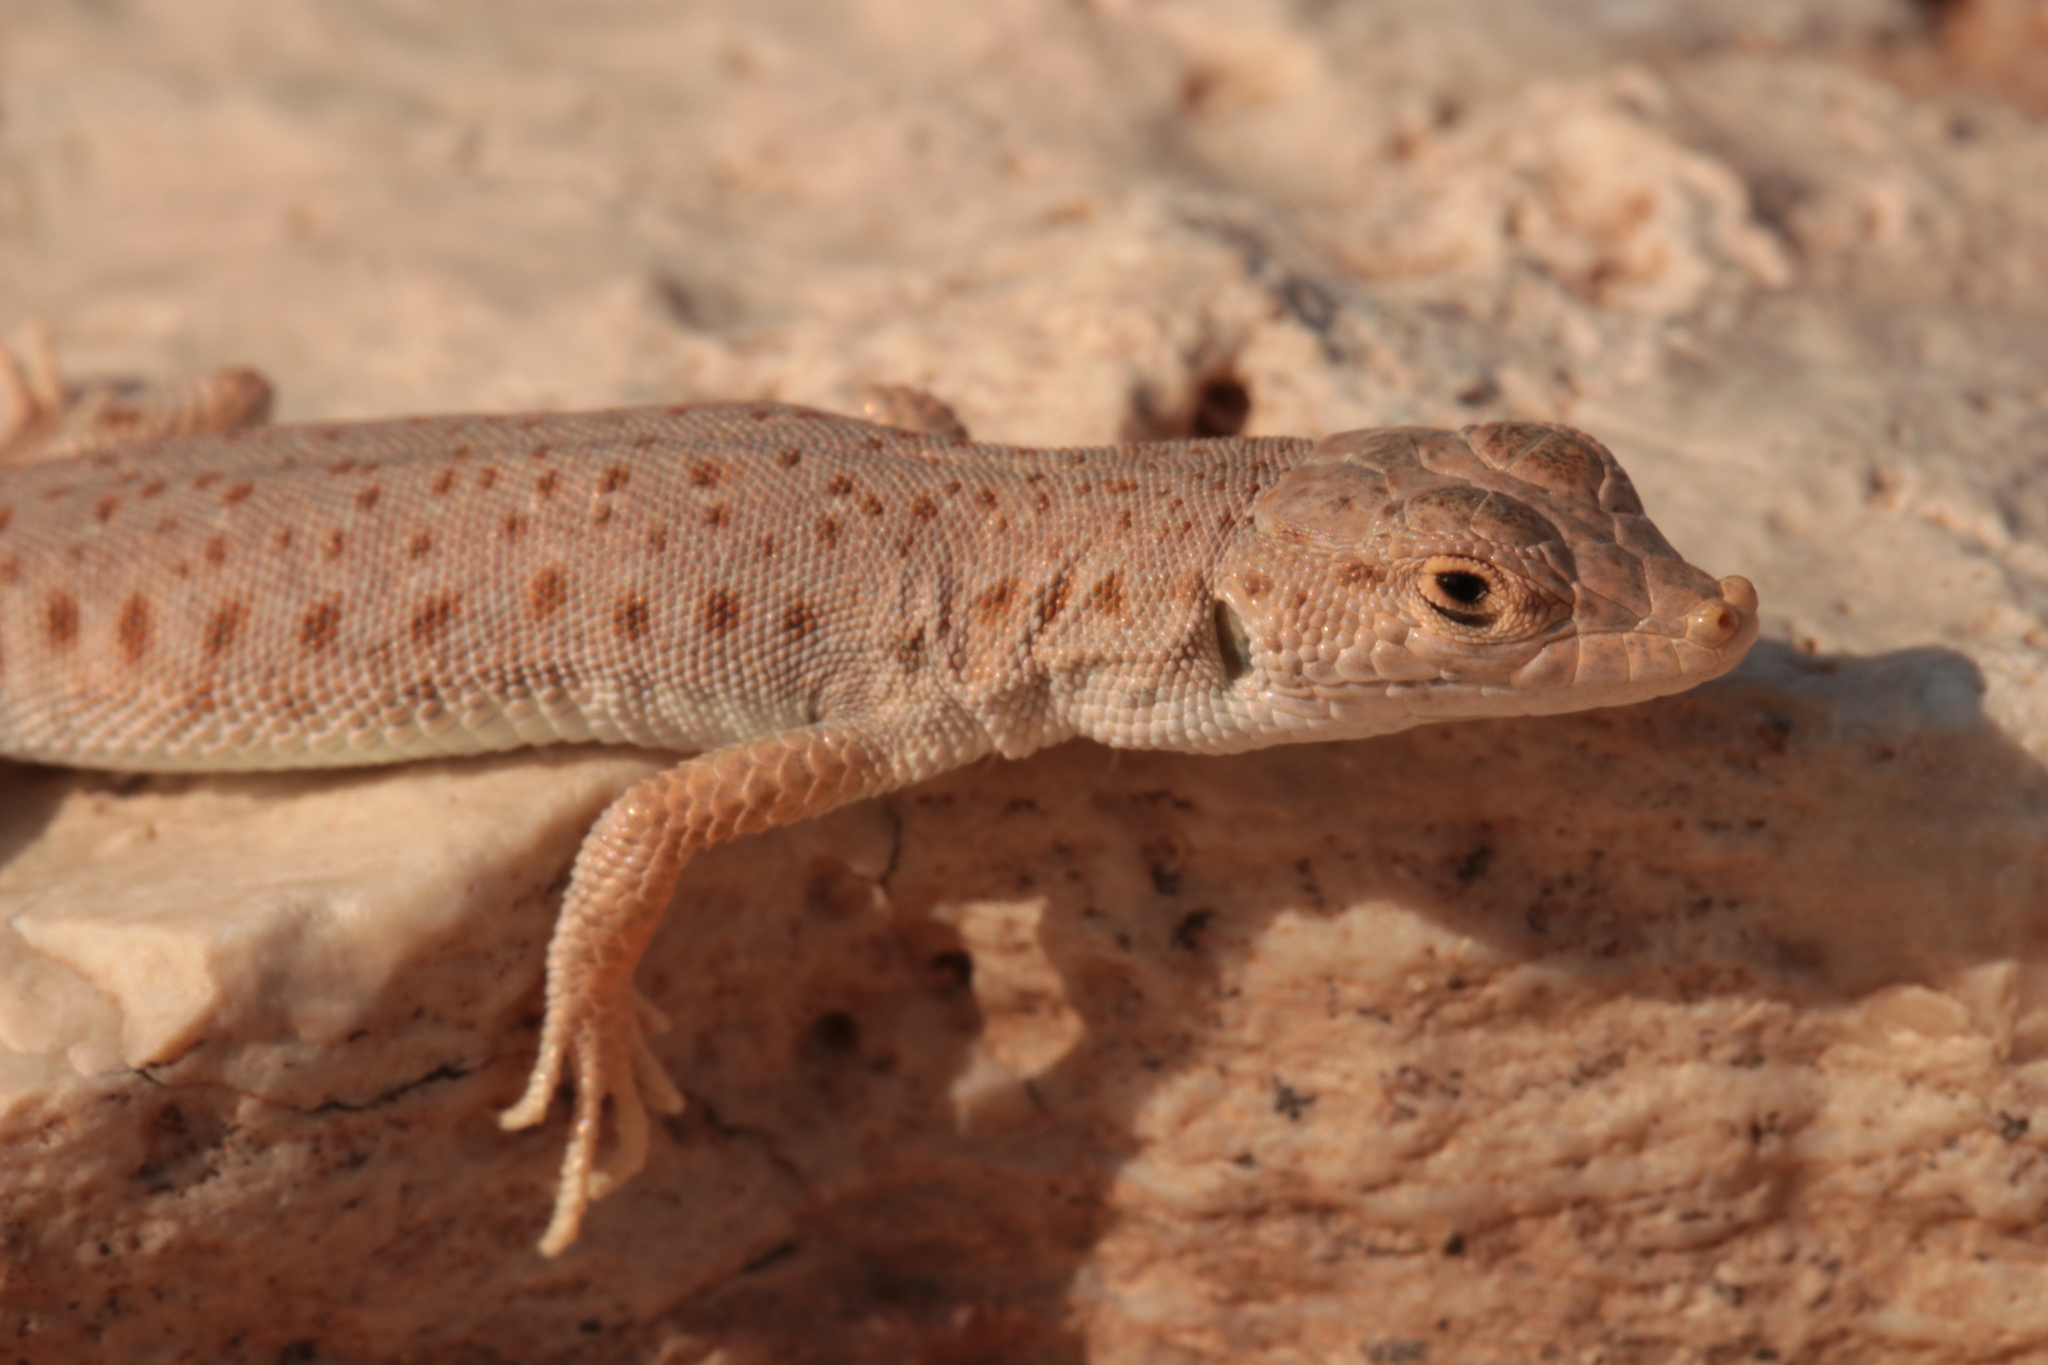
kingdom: Animalia
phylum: Chordata
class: Squamata
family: Lacertidae
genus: Mesalina
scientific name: Mesalina brevirostris
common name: Blanford's short-nosed desert lizard
